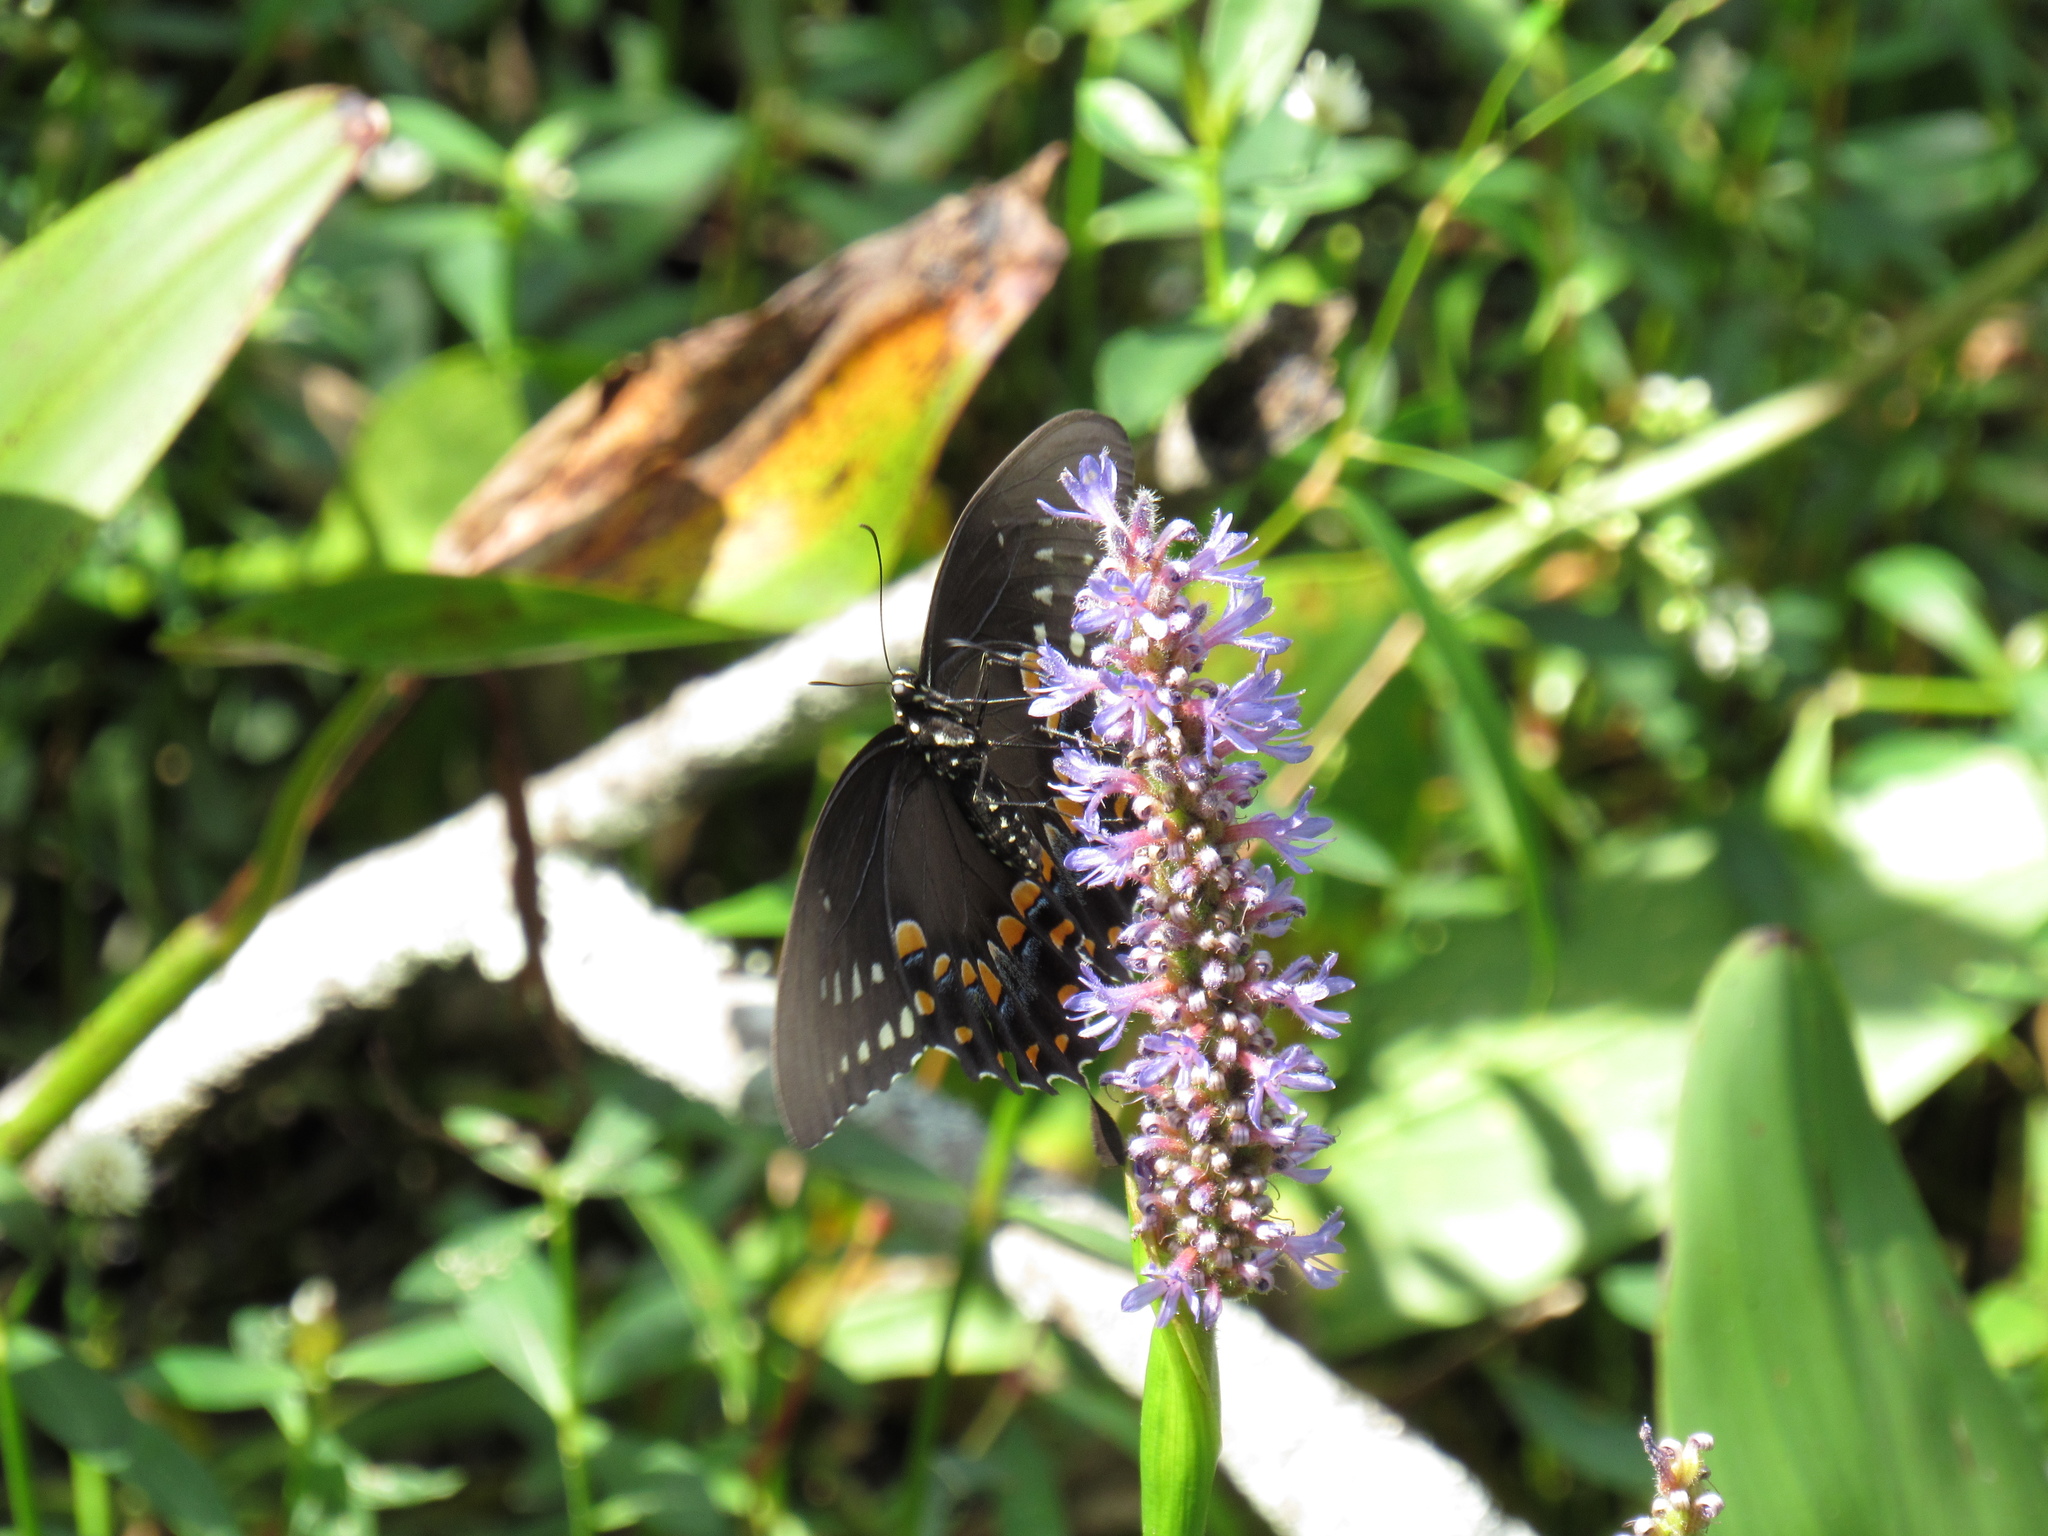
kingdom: Animalia
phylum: Arthropoda
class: Insecta
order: Lepidoptera
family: Papilionidae
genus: Papilio
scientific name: Papilio troilus
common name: Spicebush swallowtail
